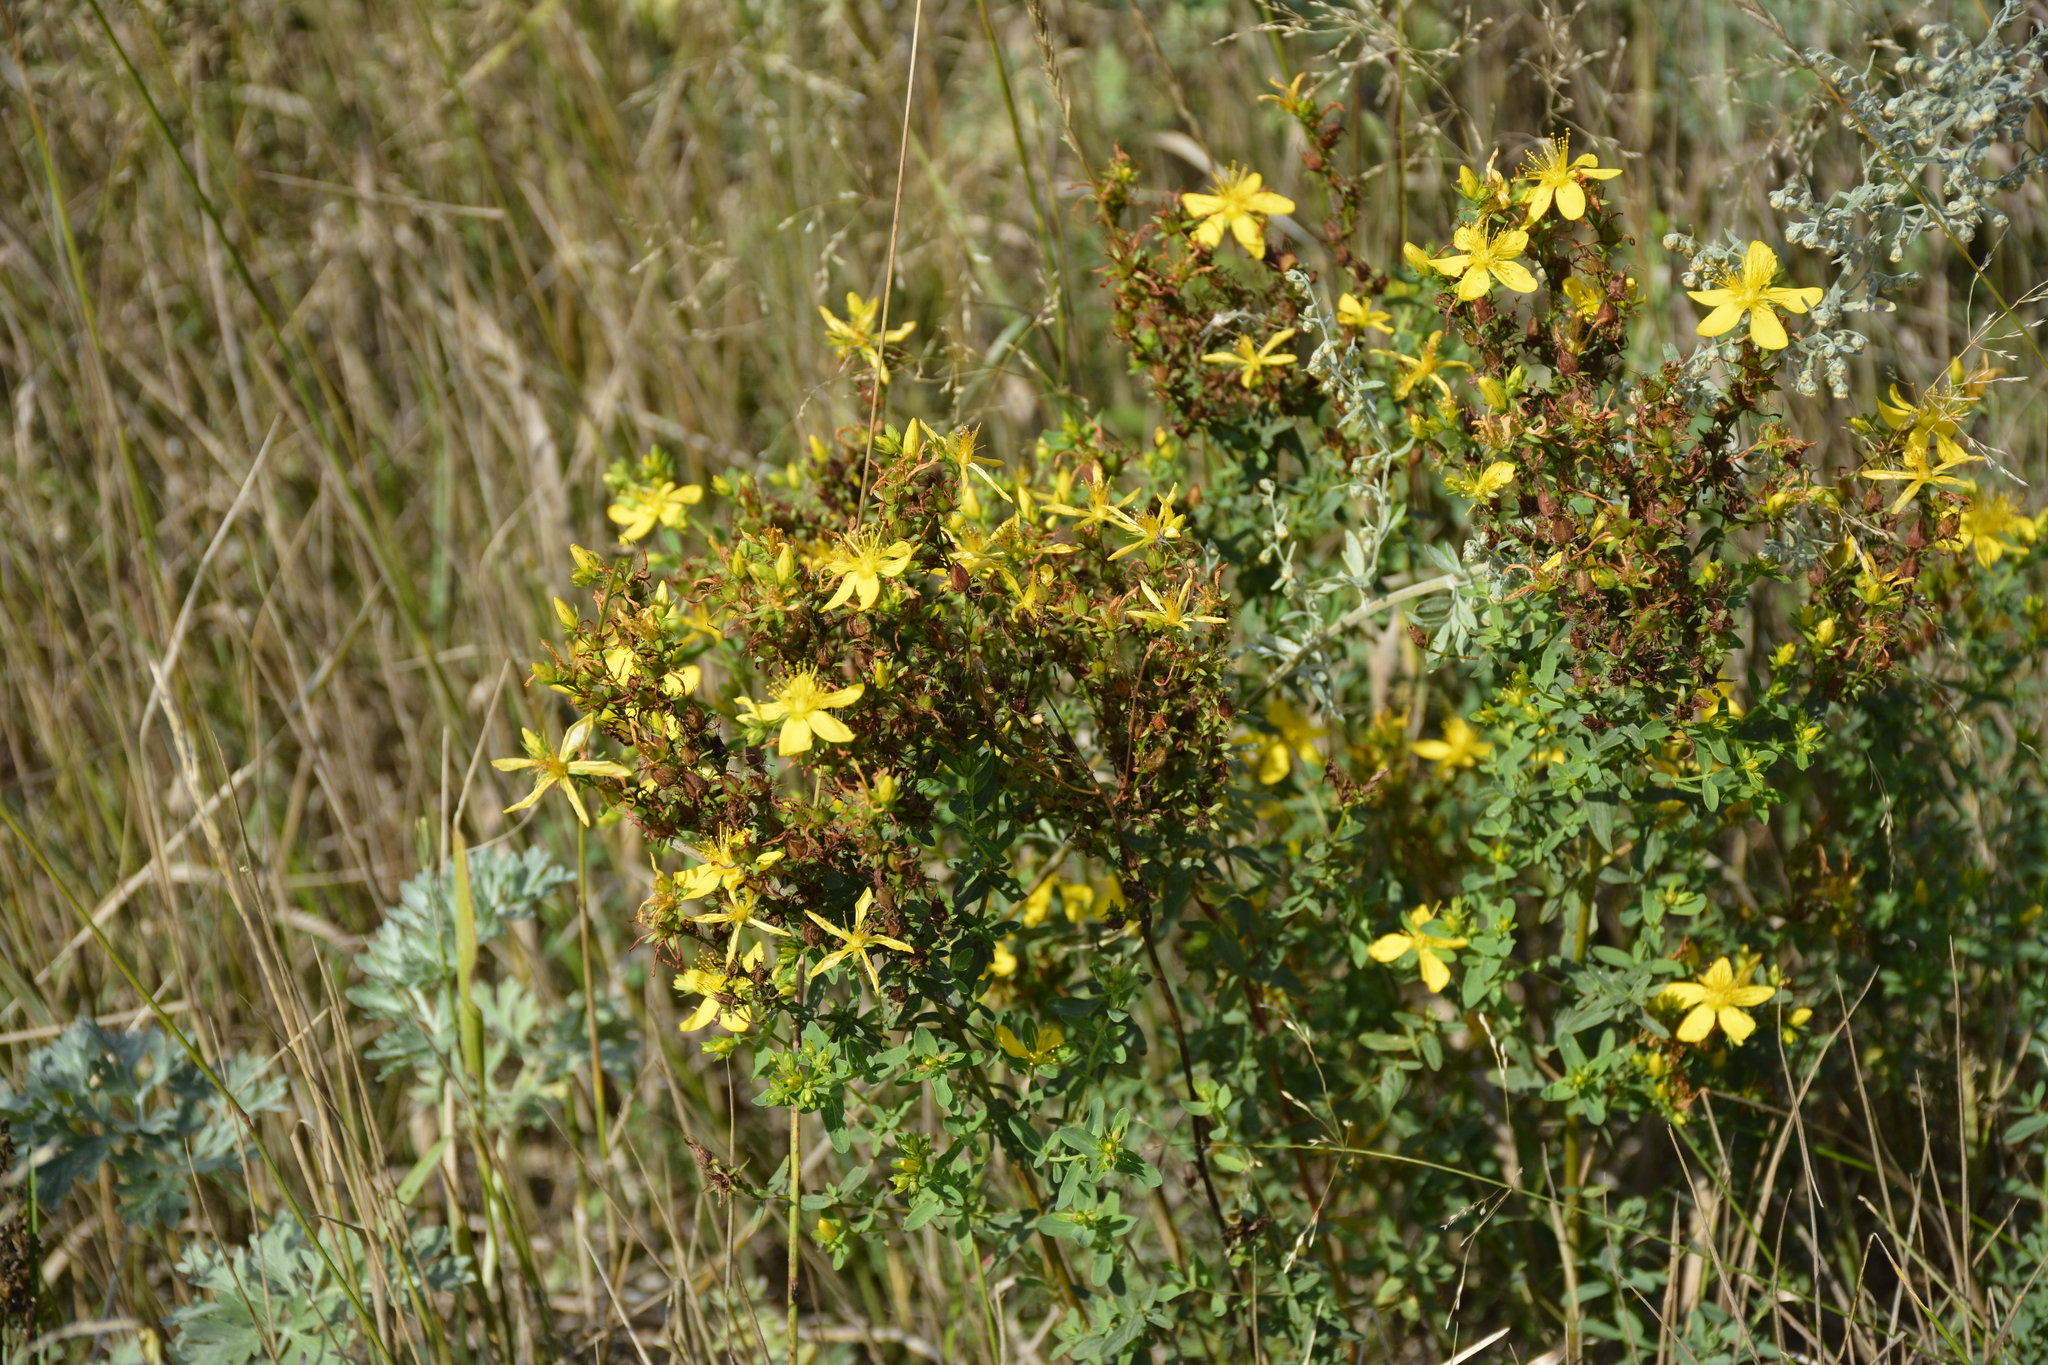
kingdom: Plantae
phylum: Tracheophyta
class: Magnoliopsida
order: Malpighiales
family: Hypericaceae
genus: Hypericum
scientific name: Hypericum perforatum
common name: Common st. johnswort
